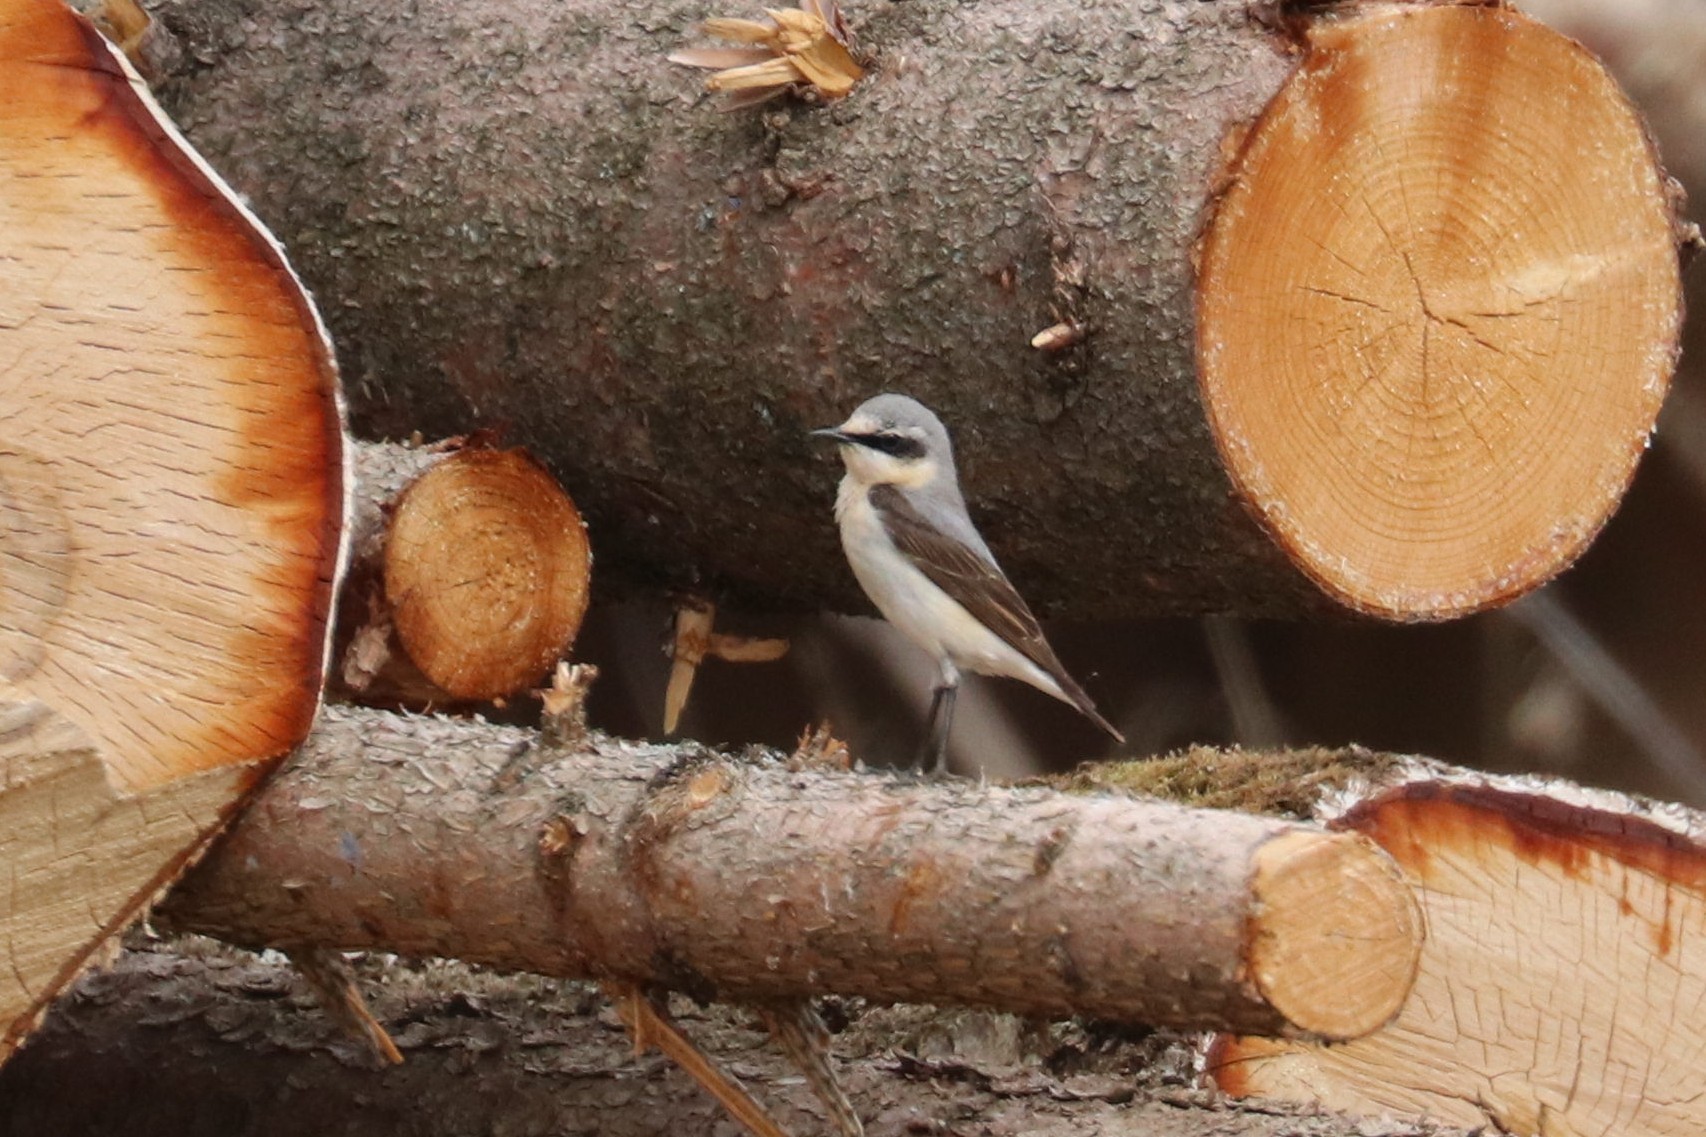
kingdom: Animalia
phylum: Chordata
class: Aves
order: Passeriformes
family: Muscicapidae
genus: Oenanthe
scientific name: Oenanthe oenanthe
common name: Northern wheatear
